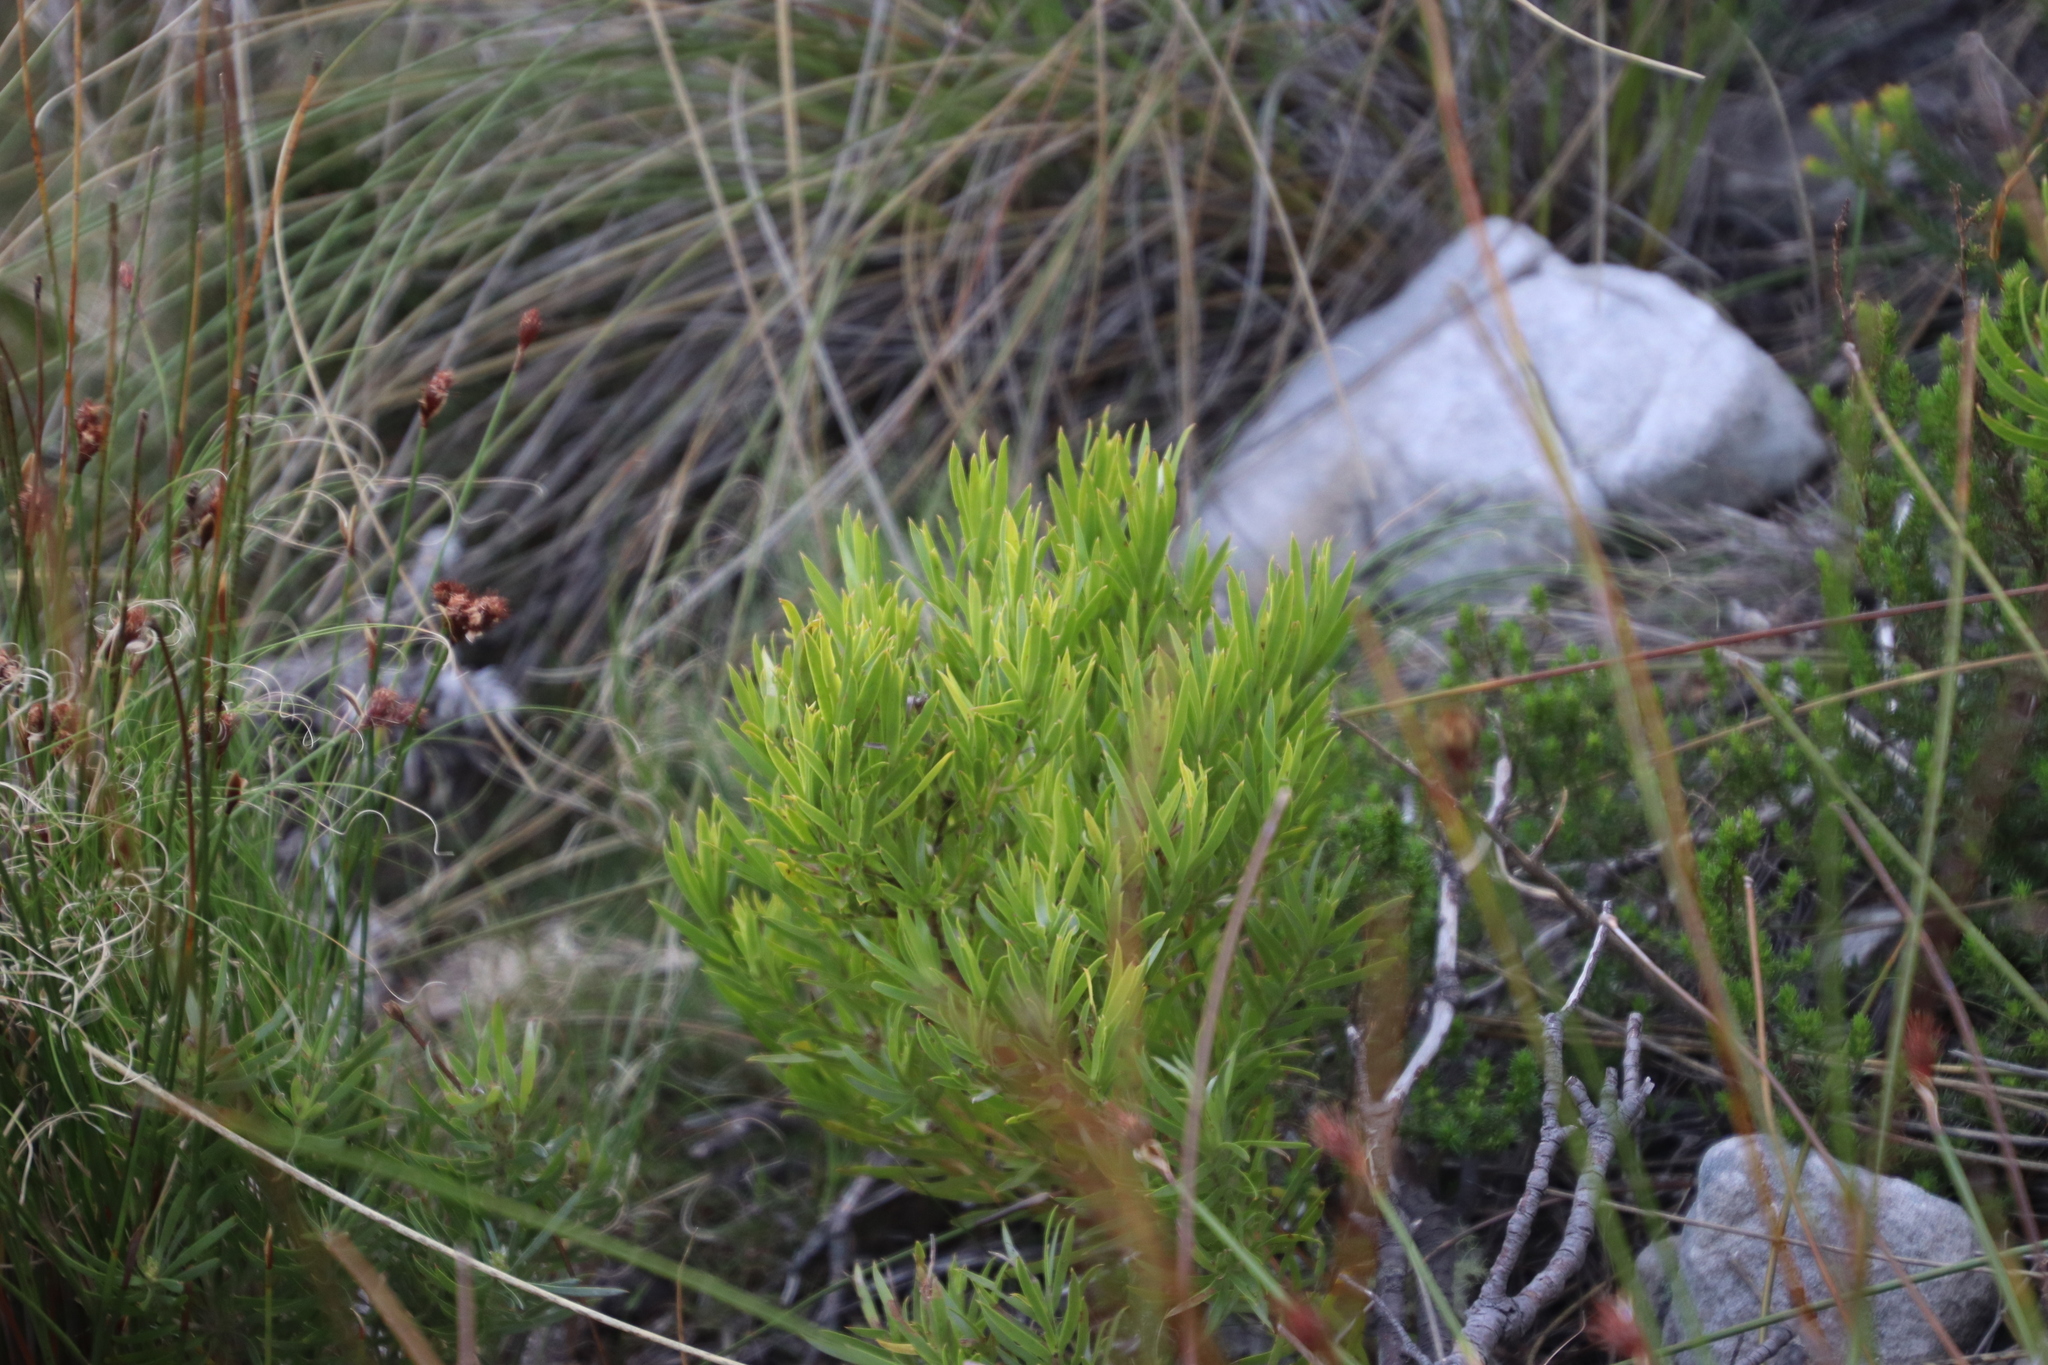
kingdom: Plantae
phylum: Tracheophyta
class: Magnoliopsida
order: Proteales
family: Proteaceae
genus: Leucadendron
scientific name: Leucadendron xanthoconus
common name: Sickle-leaf conebush
